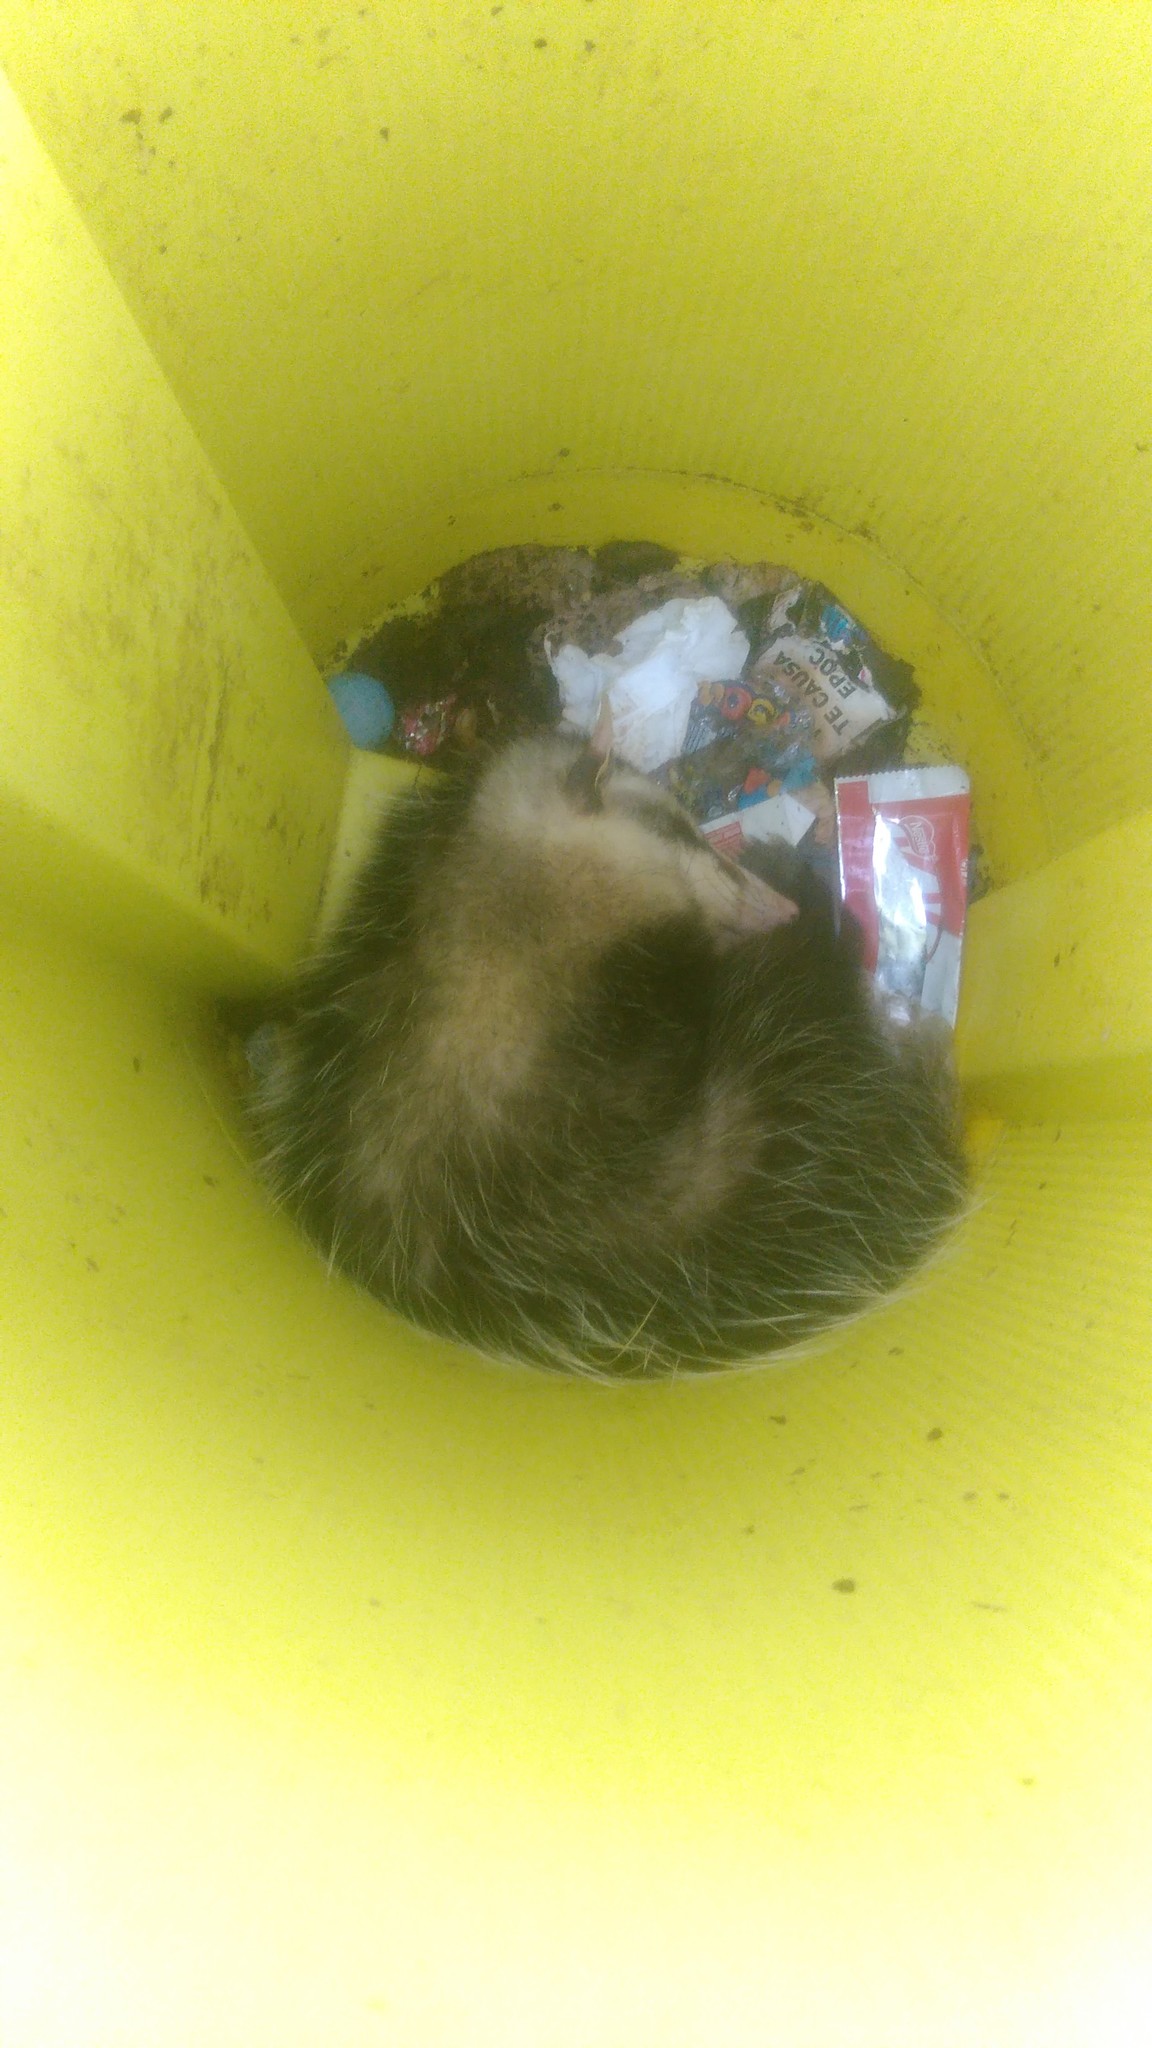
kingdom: Animalia
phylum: Chordata
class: Mammalia
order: Didelphimorphia
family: Didelphidae
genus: Didelphis
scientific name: Didelphis albiventris
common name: White-eared opossum
